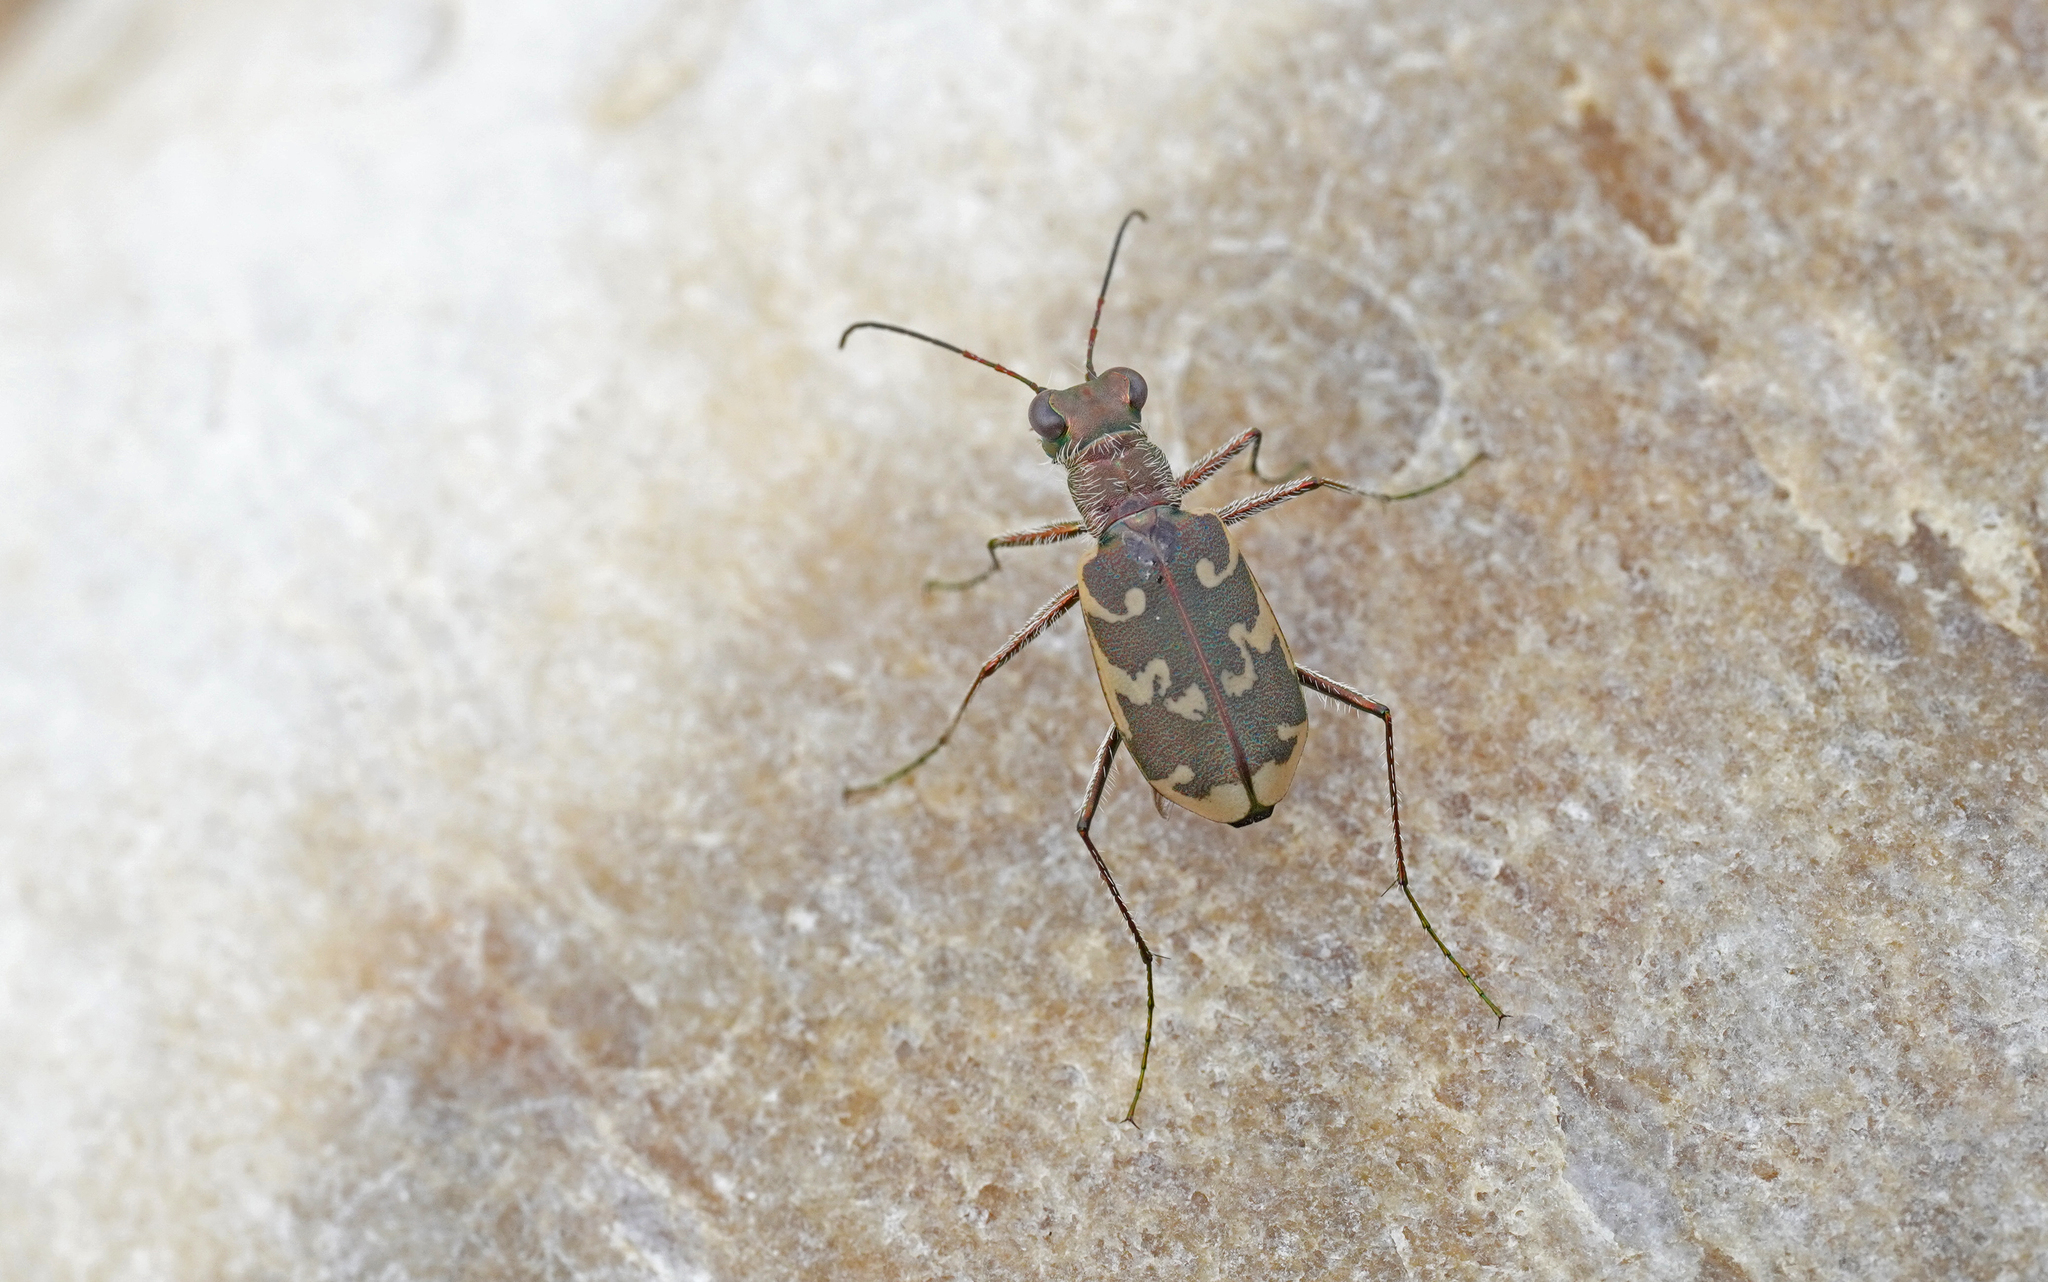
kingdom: Animalia
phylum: Arthropoda
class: Insecta
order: Coleoptera
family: Carabidae
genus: Cylindera
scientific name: Cylindera arenaria
